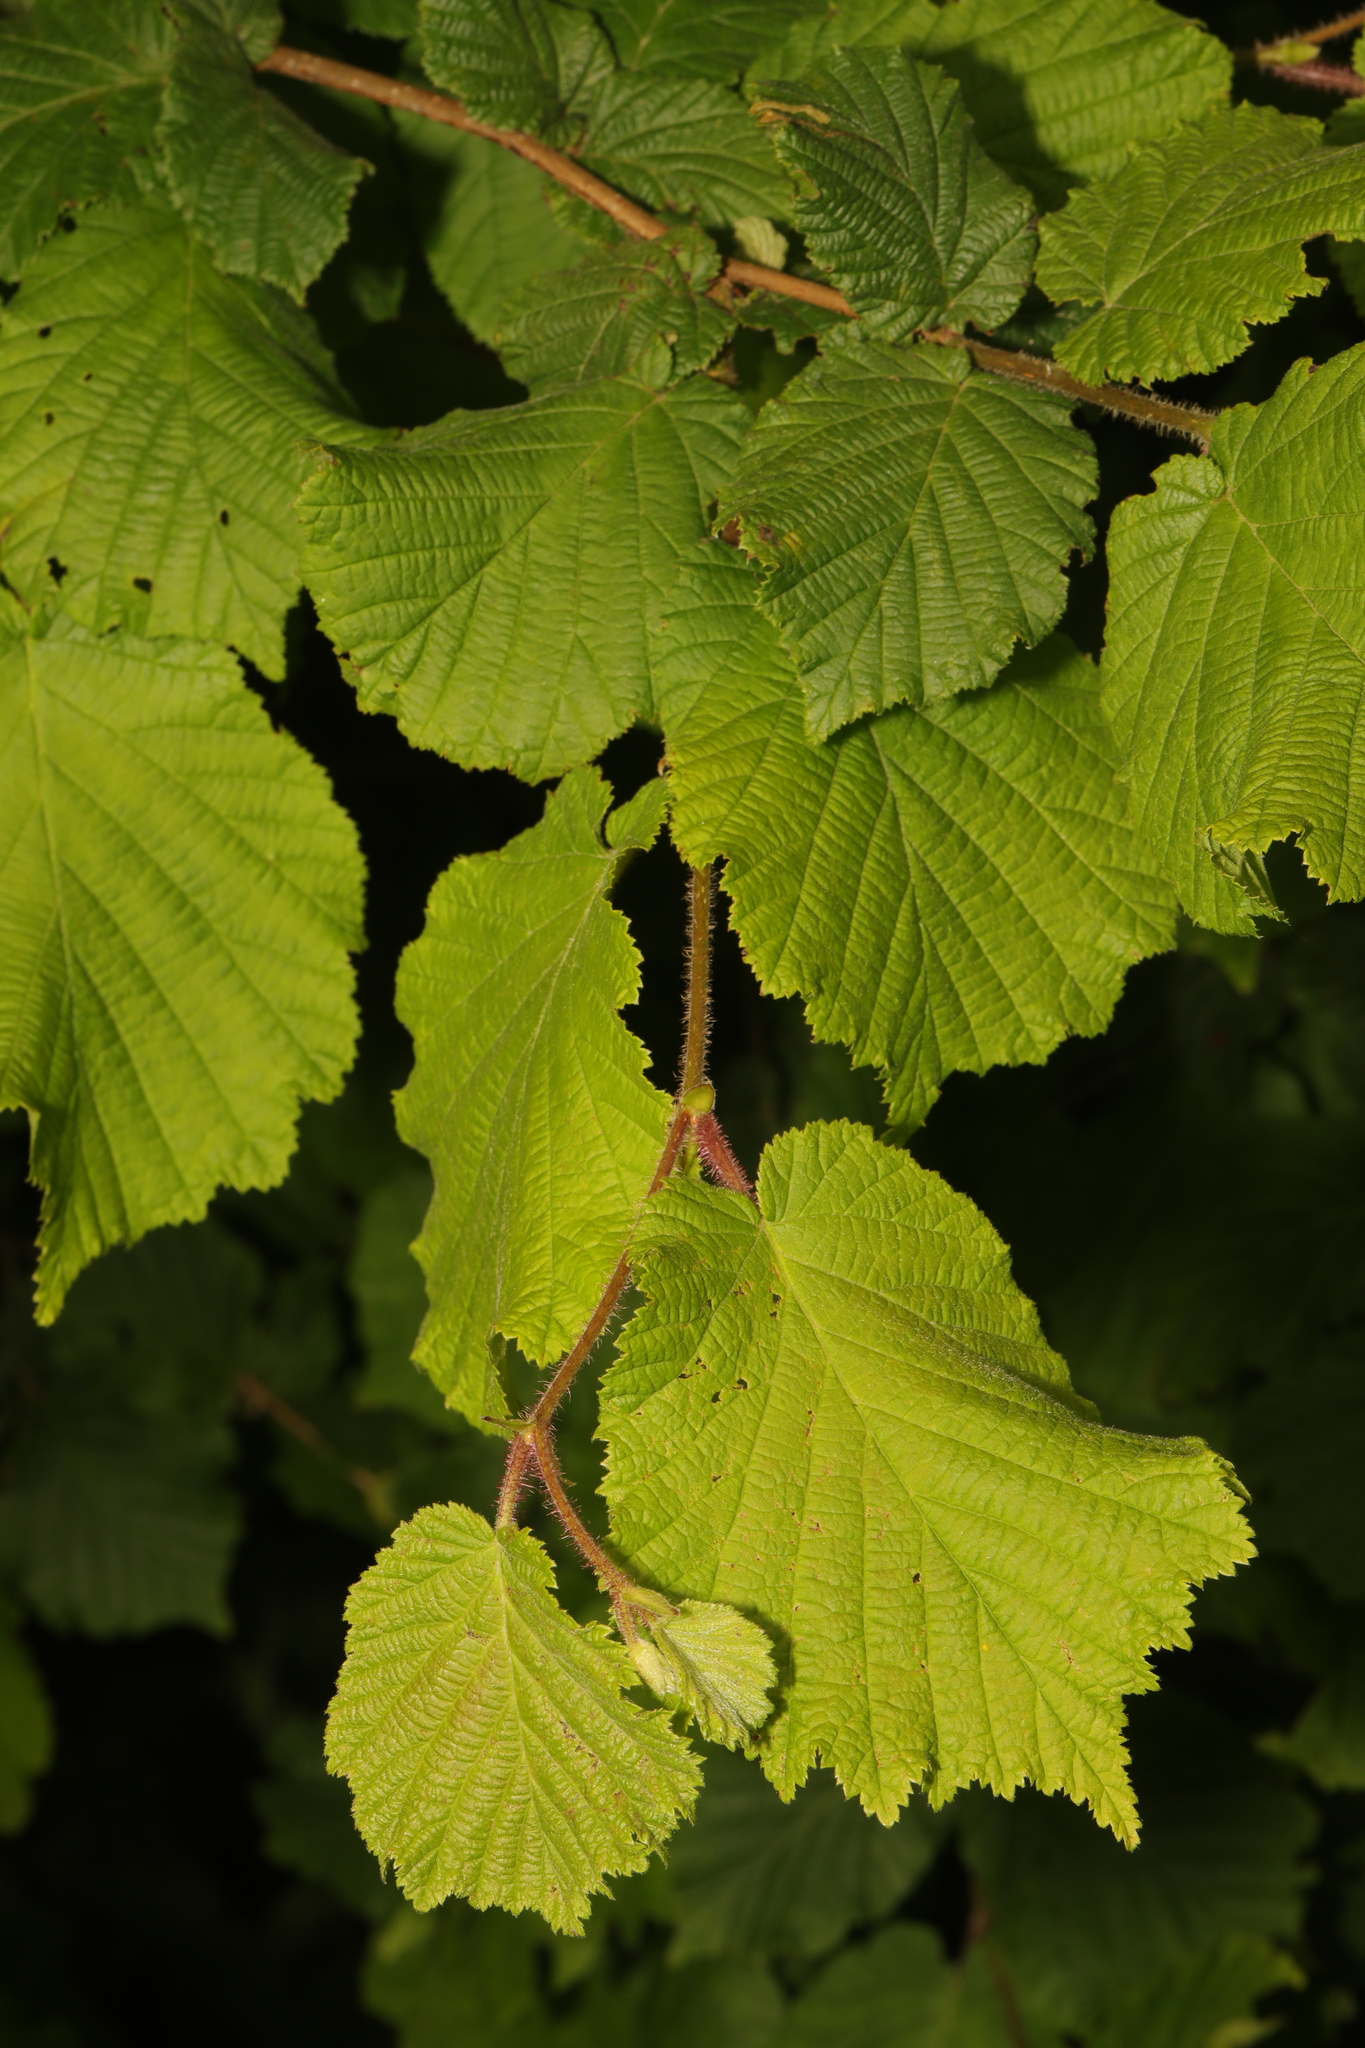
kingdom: Plantae
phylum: Tracheophyta
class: Magnoliopsida
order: Fagales
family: Betulaceae
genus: Corylus
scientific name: Corylus avellana
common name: European hazel
